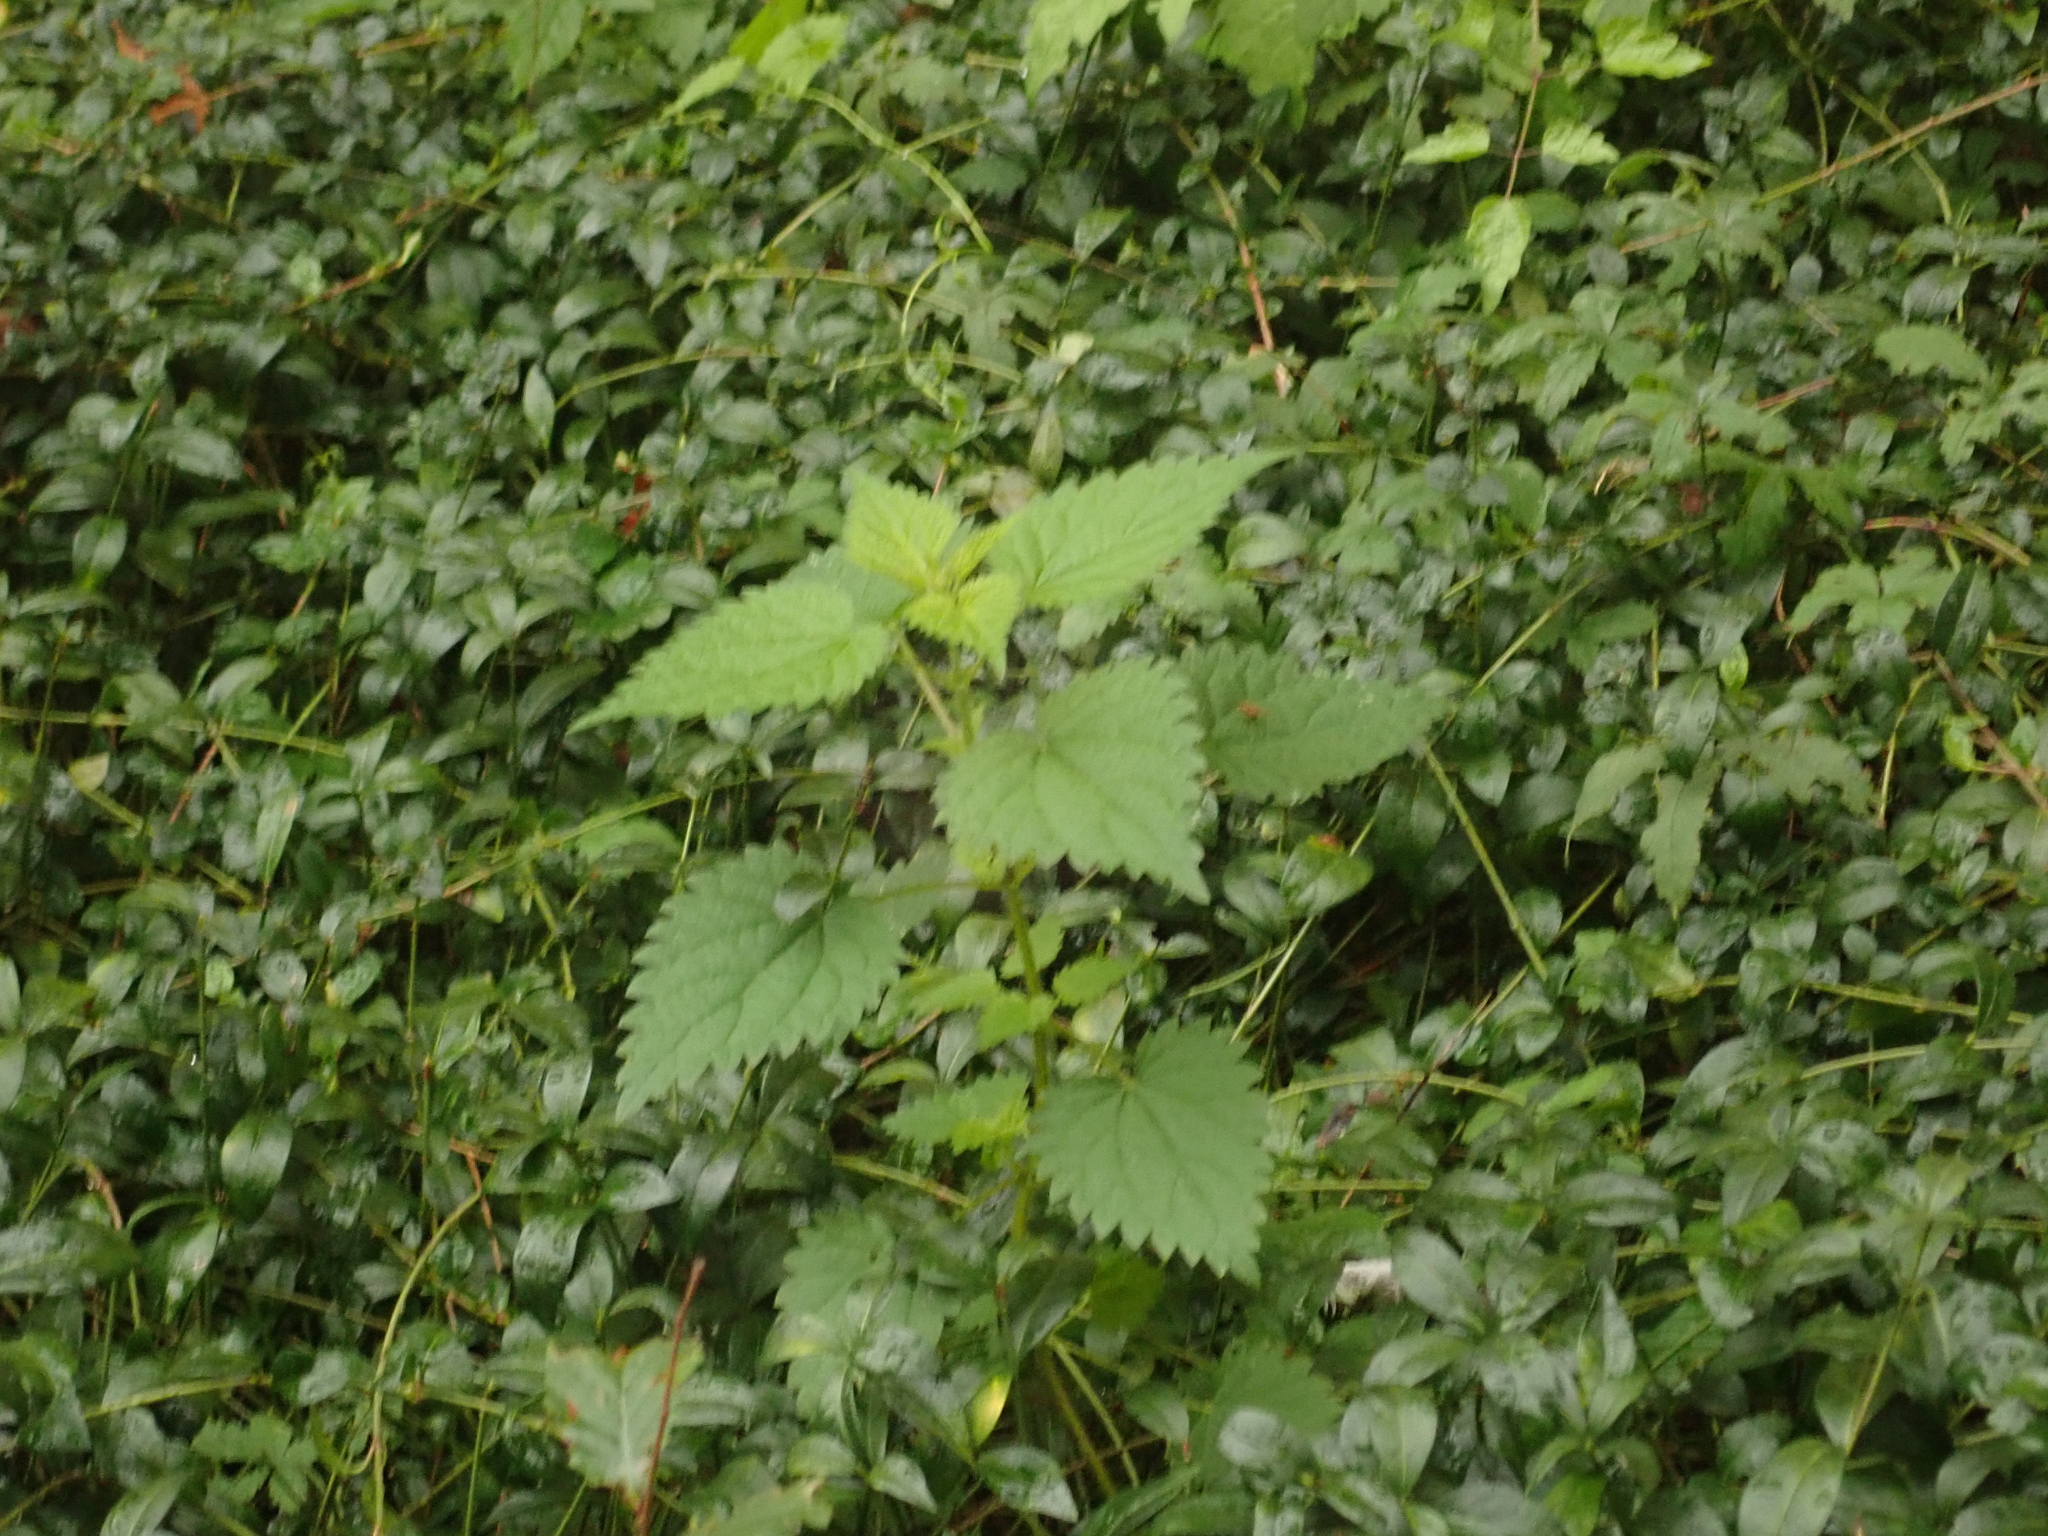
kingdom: Plantae
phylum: Tracheophyta
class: Magnoliopsida
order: Rosales
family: Urticaceae
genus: Urtica
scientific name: Urtica dioica
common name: Common nettle
